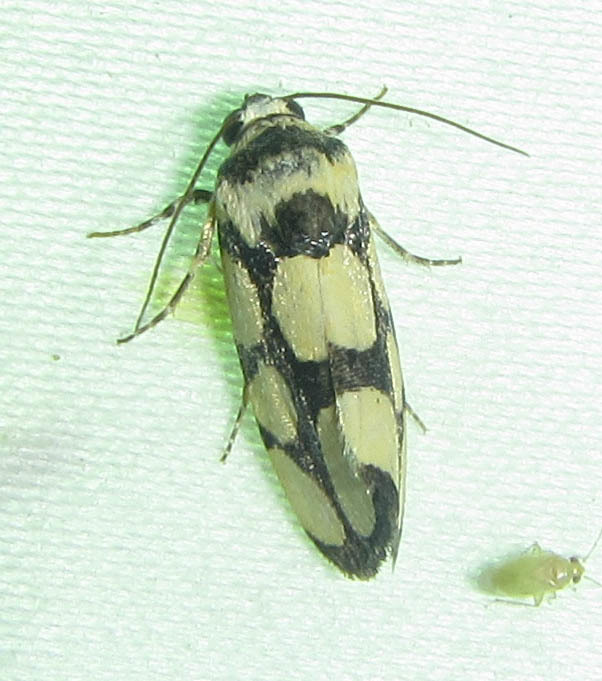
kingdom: Animalia
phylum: Arthropoda
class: Insecta
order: Lepidoptera
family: Noctuidae
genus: Acontia
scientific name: Acontia guttifera
